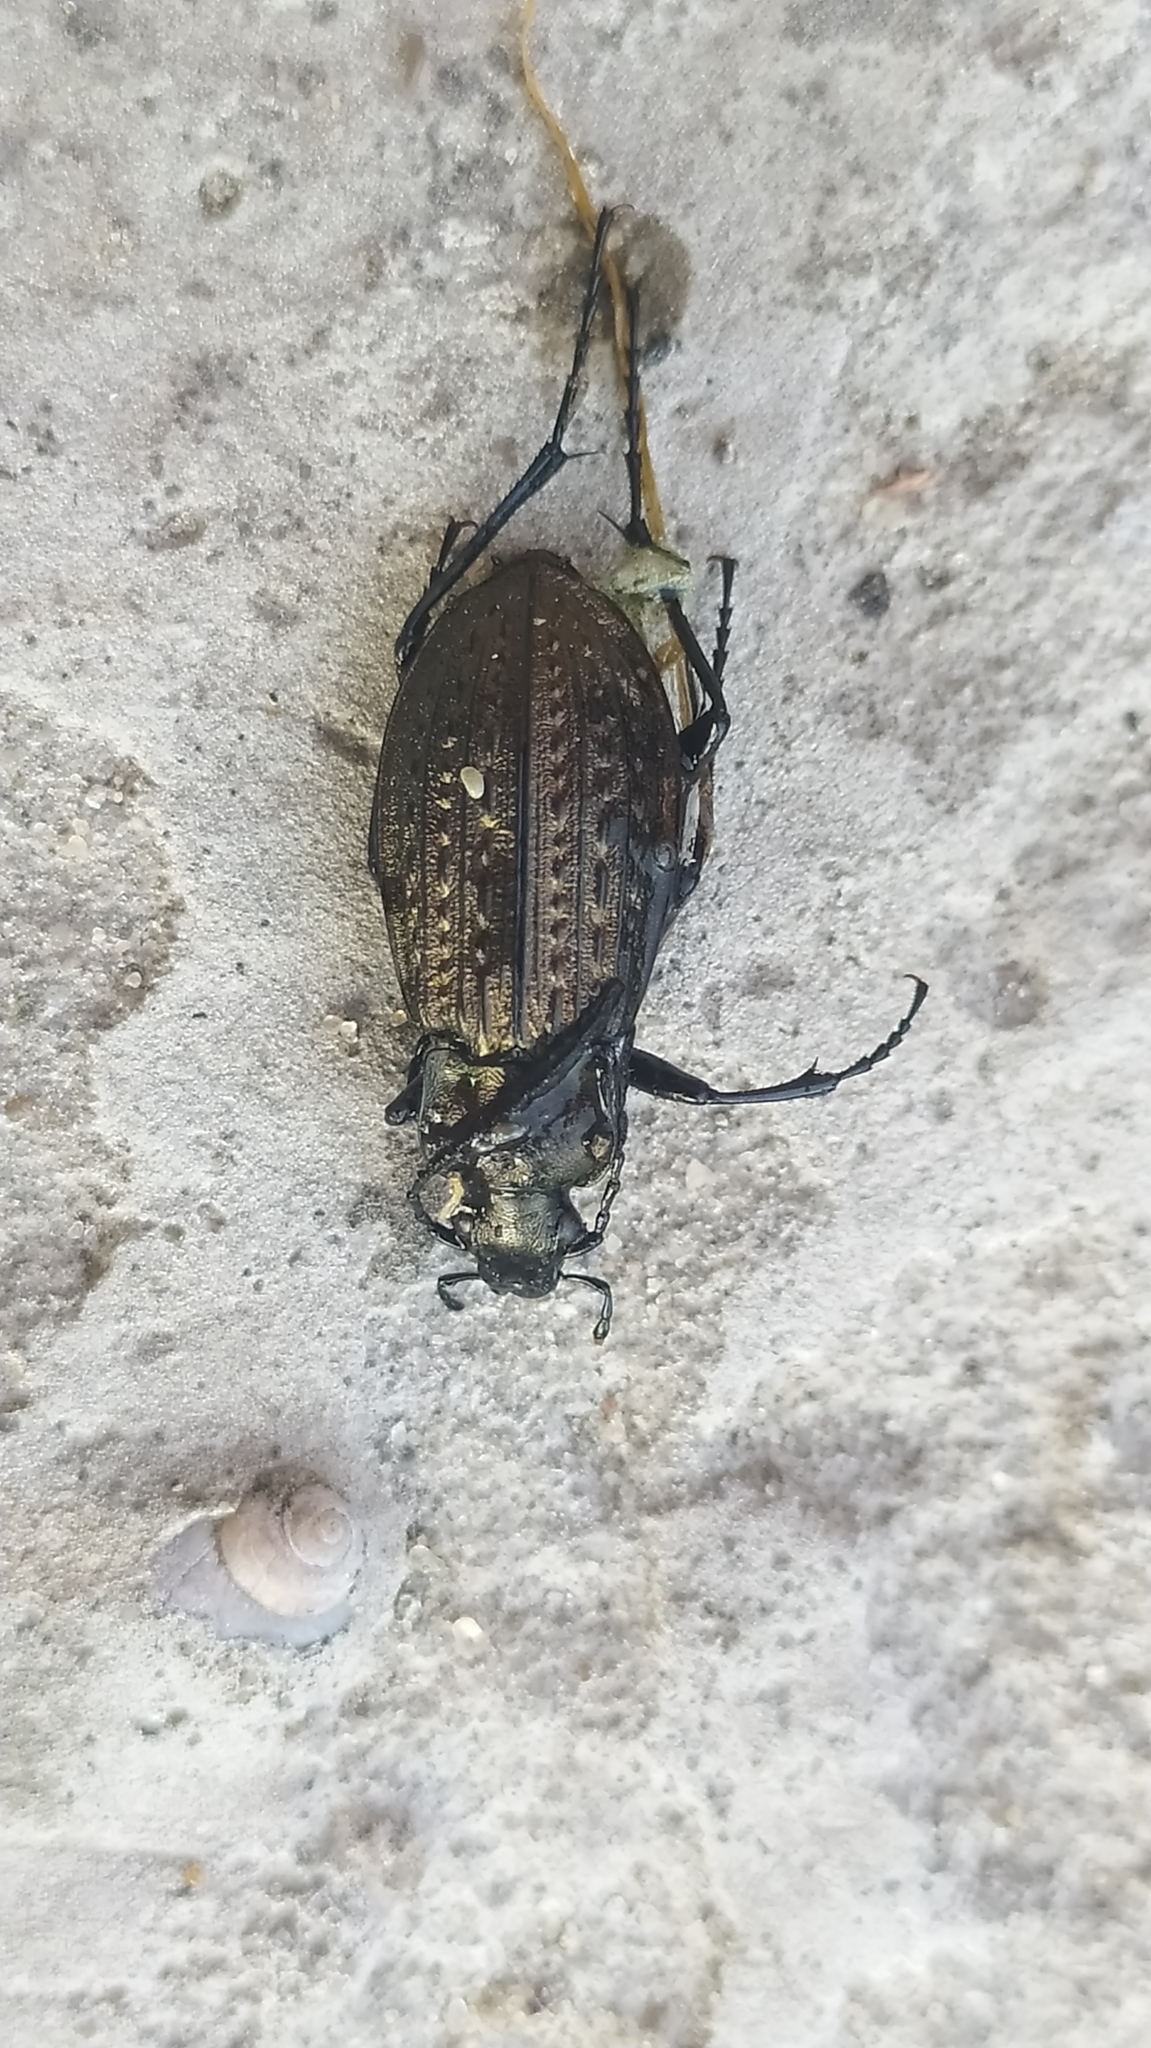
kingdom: Animalia
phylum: Arthropoda
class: Insecta
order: Coleoptera
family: Carabidae
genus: Carabus
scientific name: Carabus granulatus
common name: Granulate ground beetle
